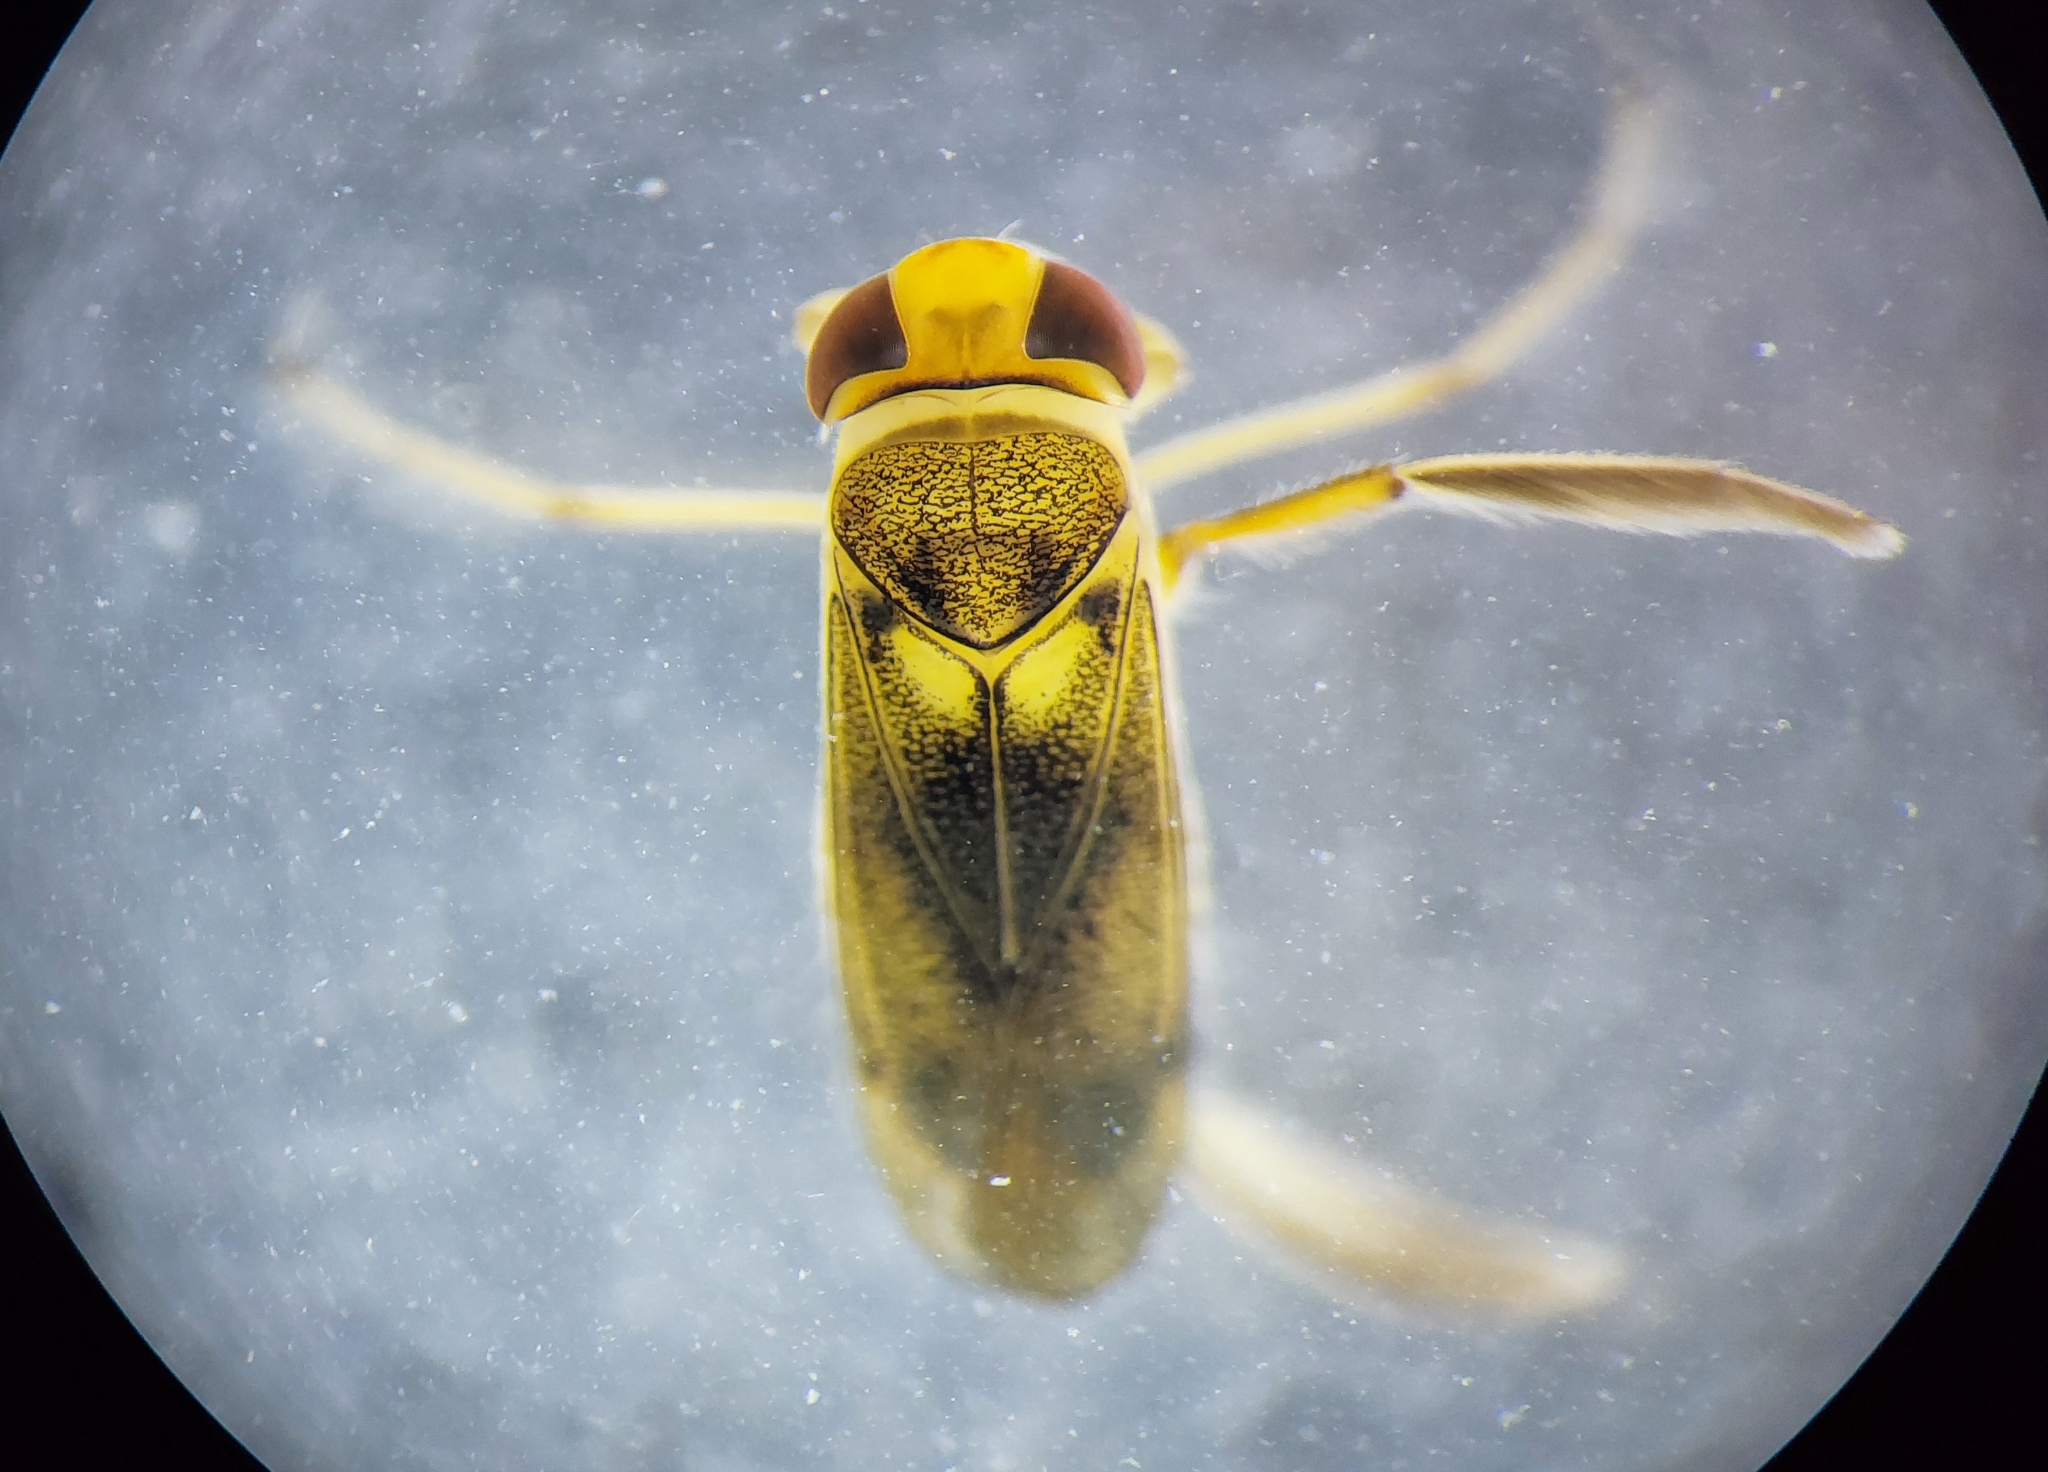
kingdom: Animalia
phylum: Arthropoda
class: Insecta
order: Hemiptera
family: Corixidae
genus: Cymatia
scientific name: Cymatia rogenhoferi
